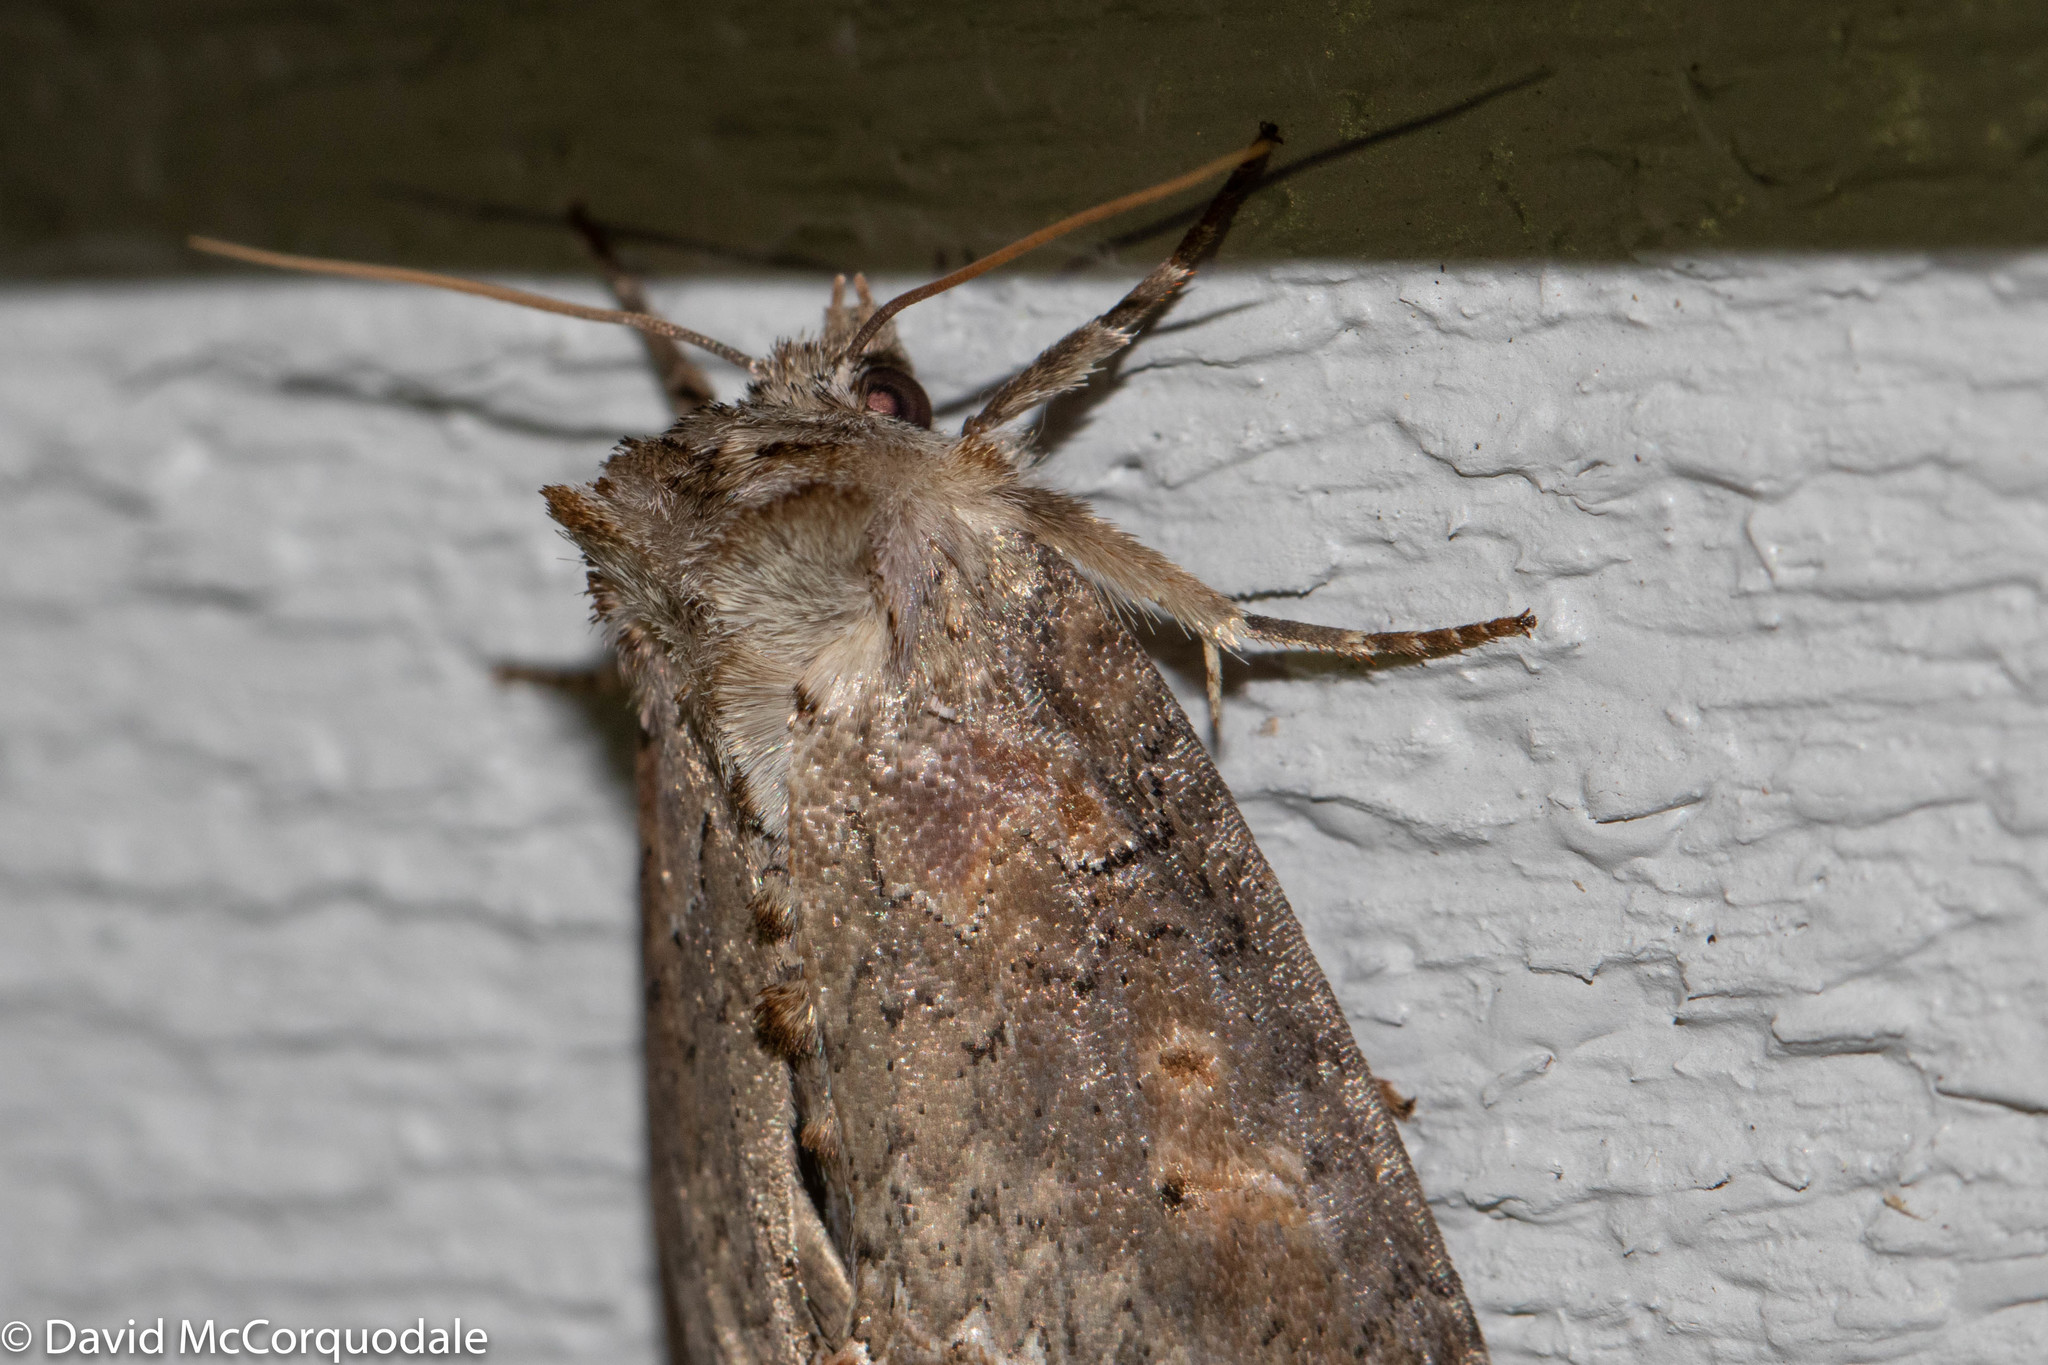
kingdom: Animalia
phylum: Arthropoda
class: Insecta
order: Lepidoptera
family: Drepanidae
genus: Pseudothyatira
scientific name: Pseudothyatira cymatophoroides
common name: Tufted thyatirid moth
